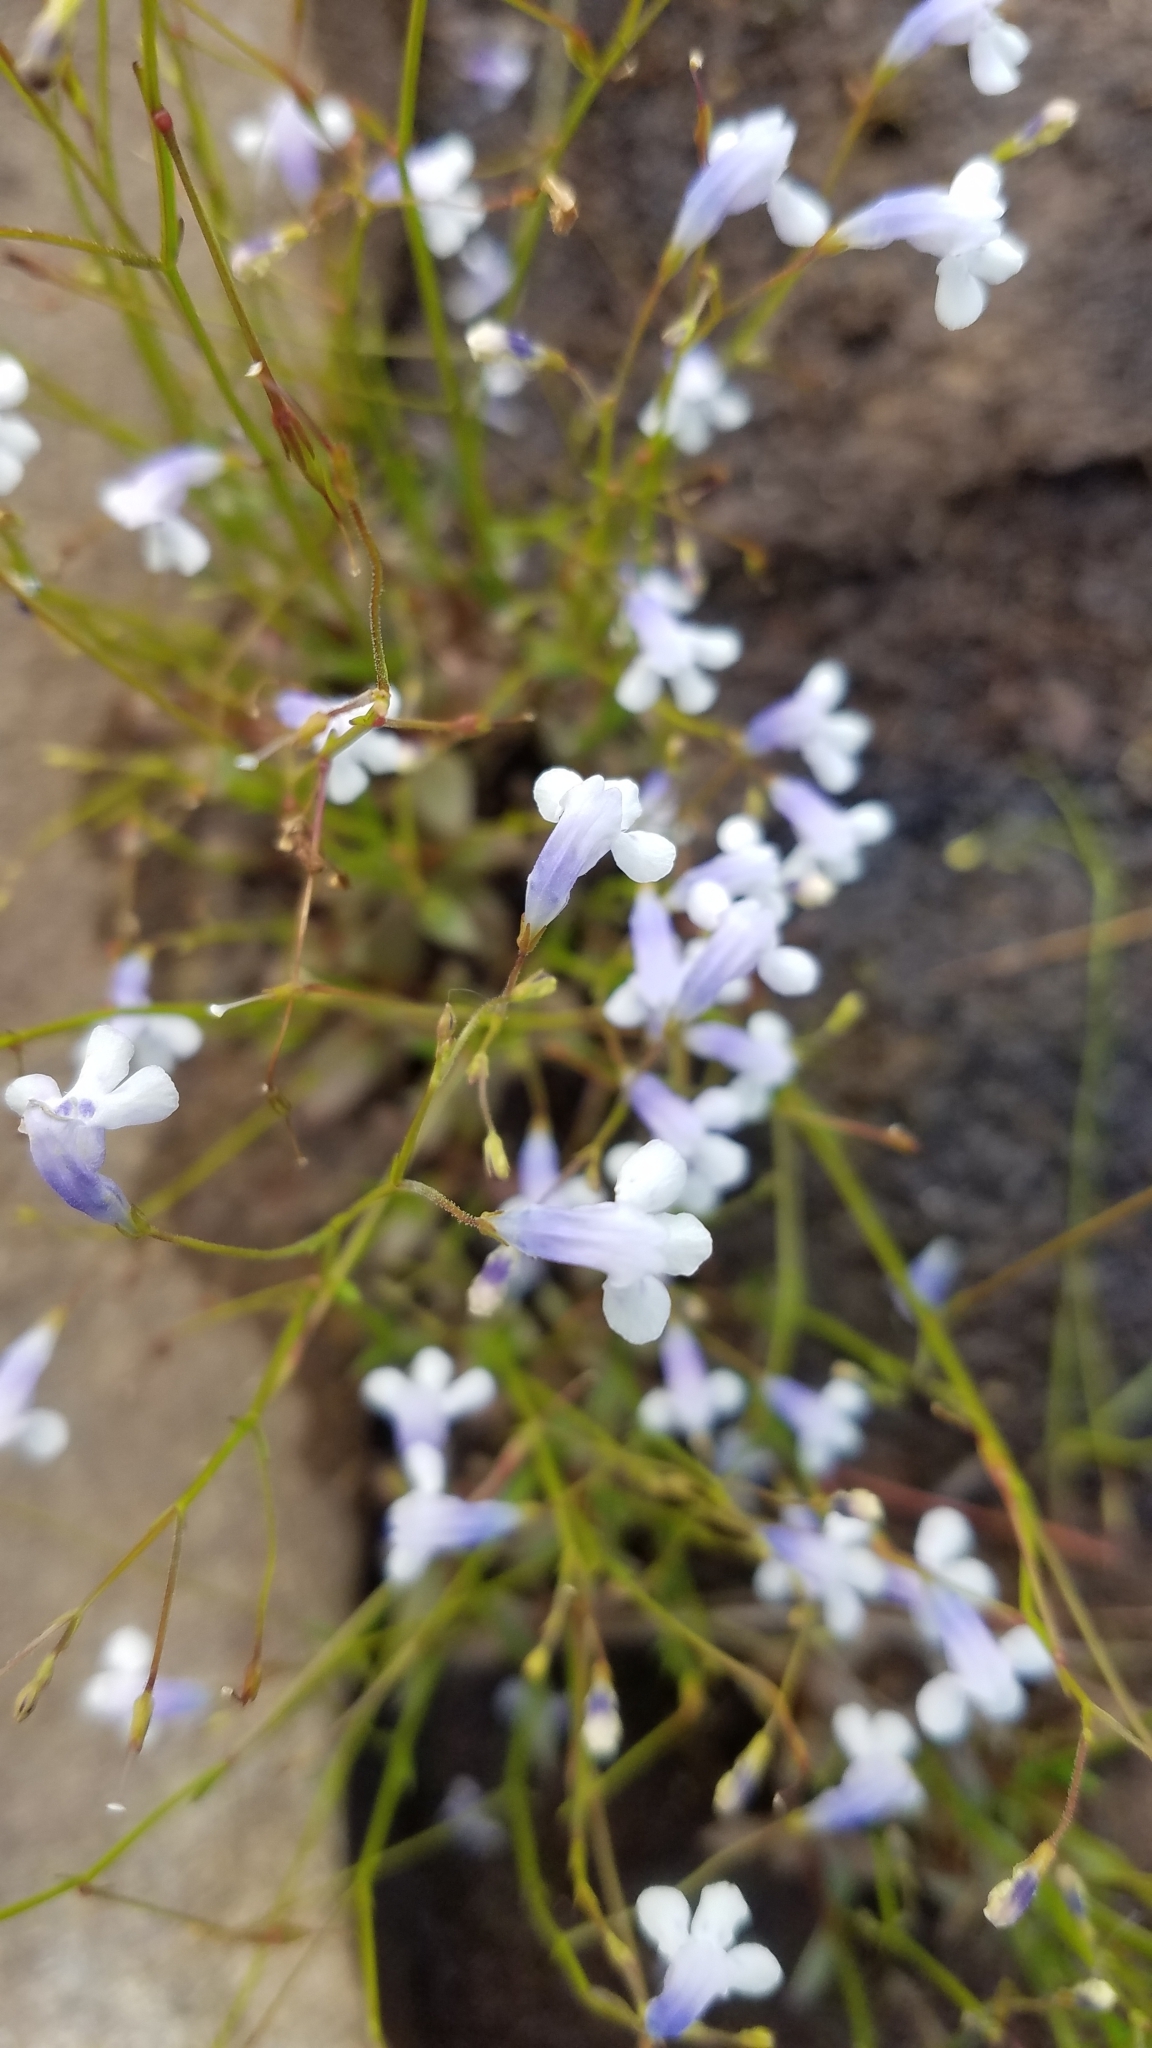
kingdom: Plantae
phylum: Tracheophyta
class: Magnoliopsida
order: Lamiales
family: Linderniaceae
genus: Lindernia
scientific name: Lindernia monticola
